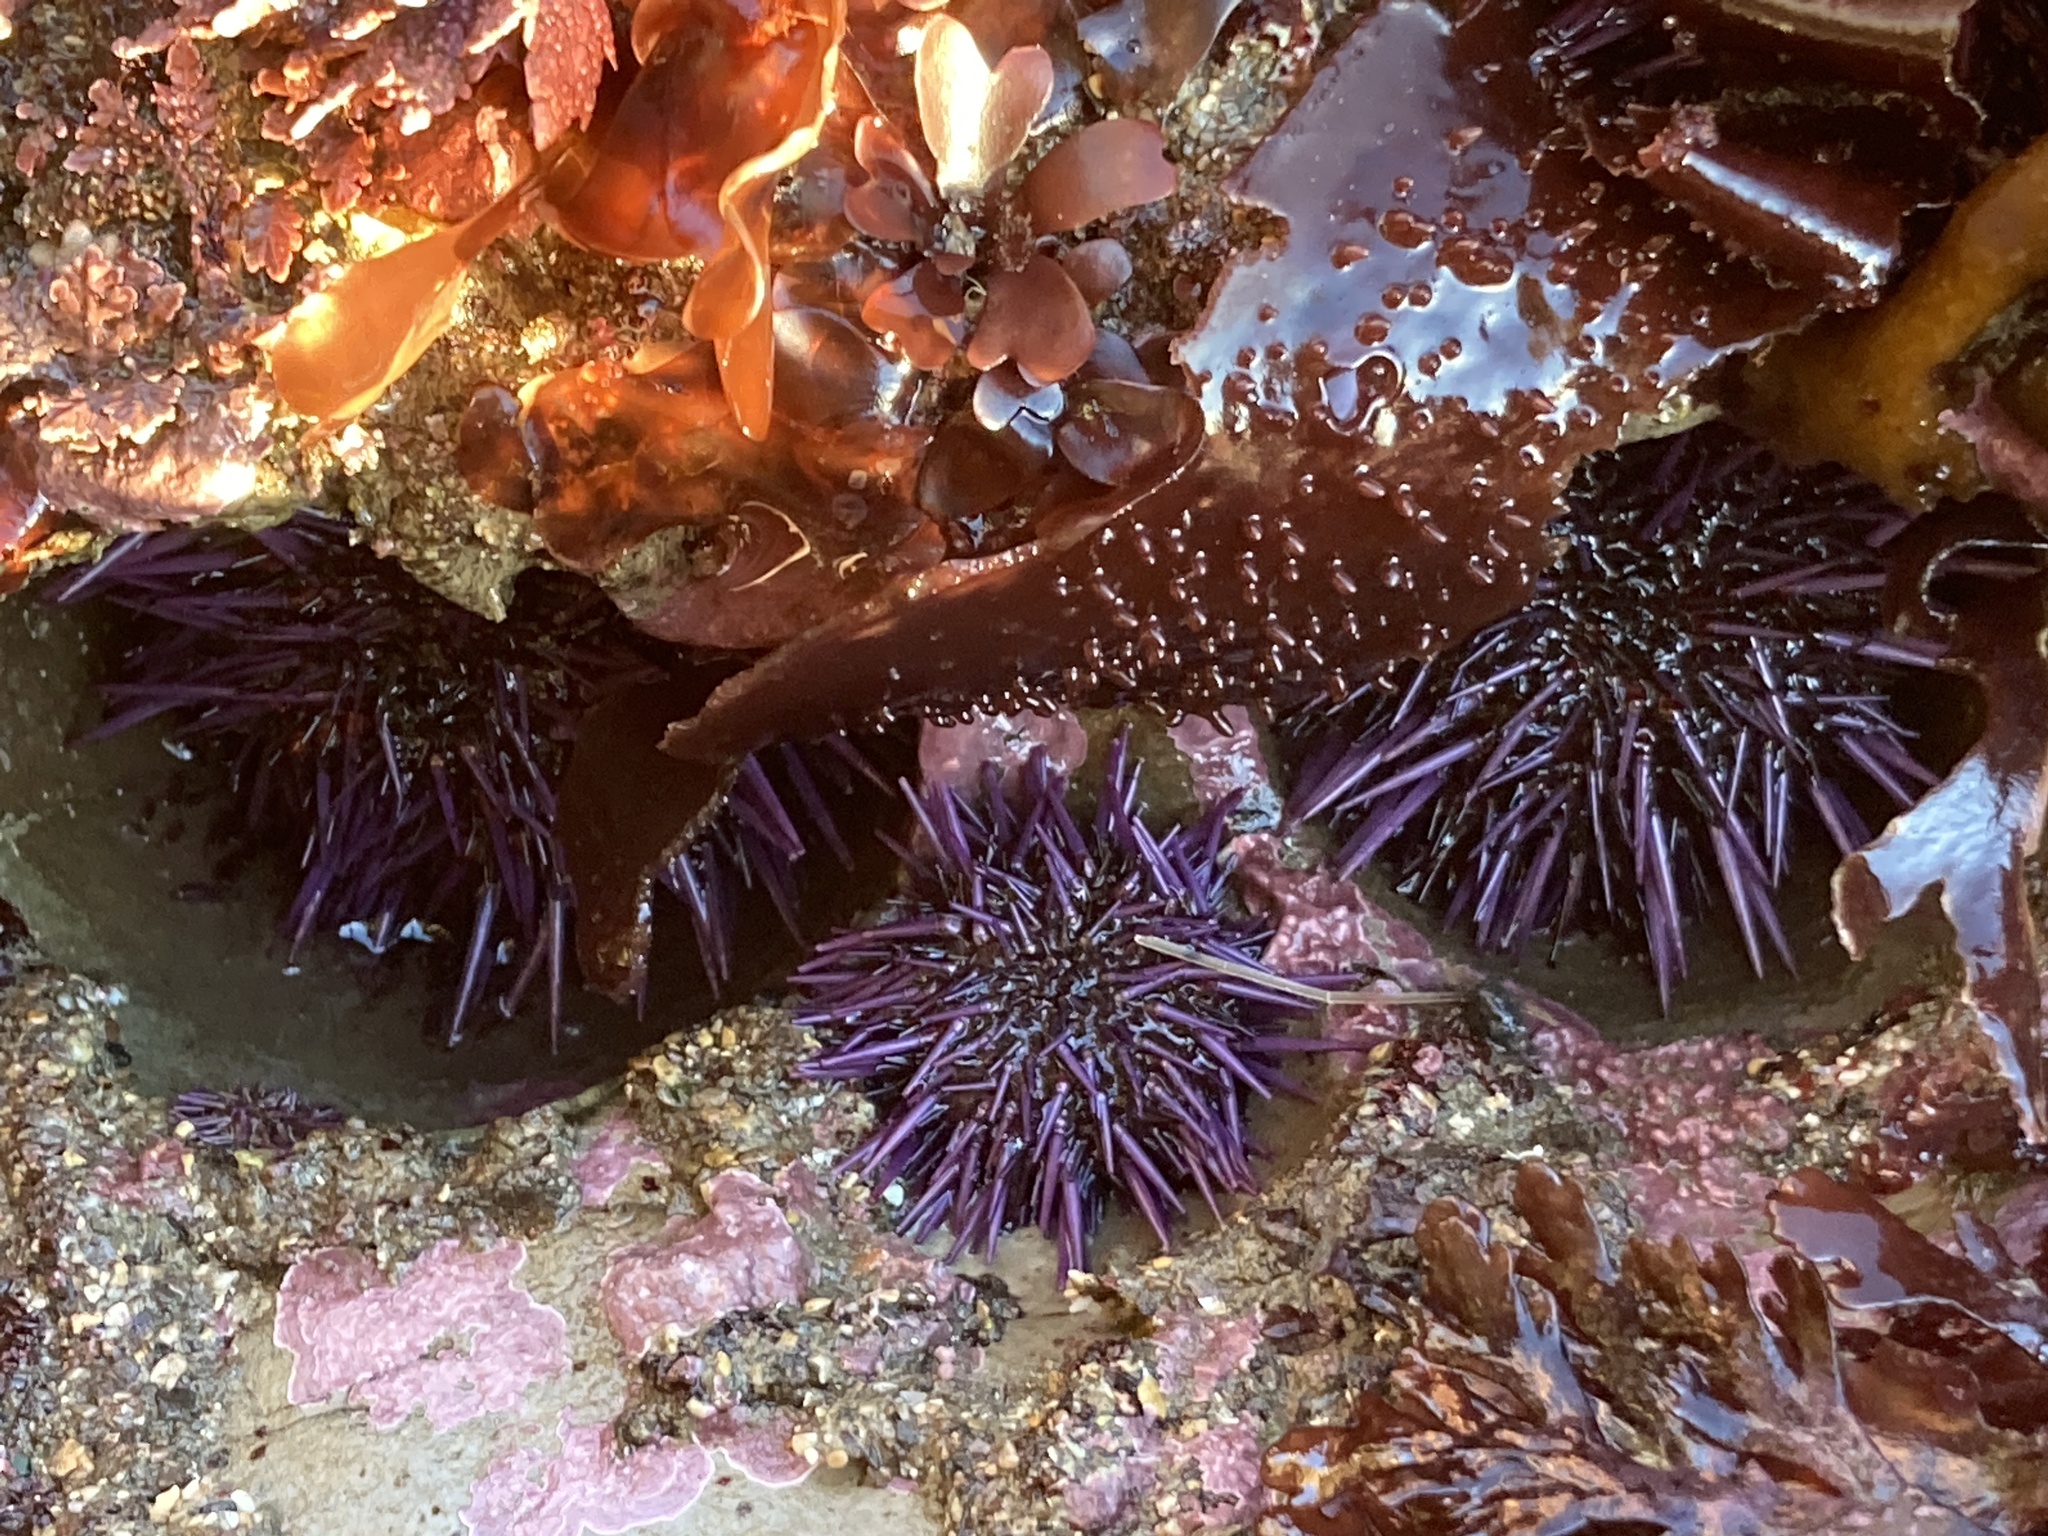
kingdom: Animalia
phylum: Echinodermata
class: Echinoidea
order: Camarodonta
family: Strongylocentrotidae
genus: Strongylocentrotus
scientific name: Strongylocentrotus purpuratus
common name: Purple sea urchin
